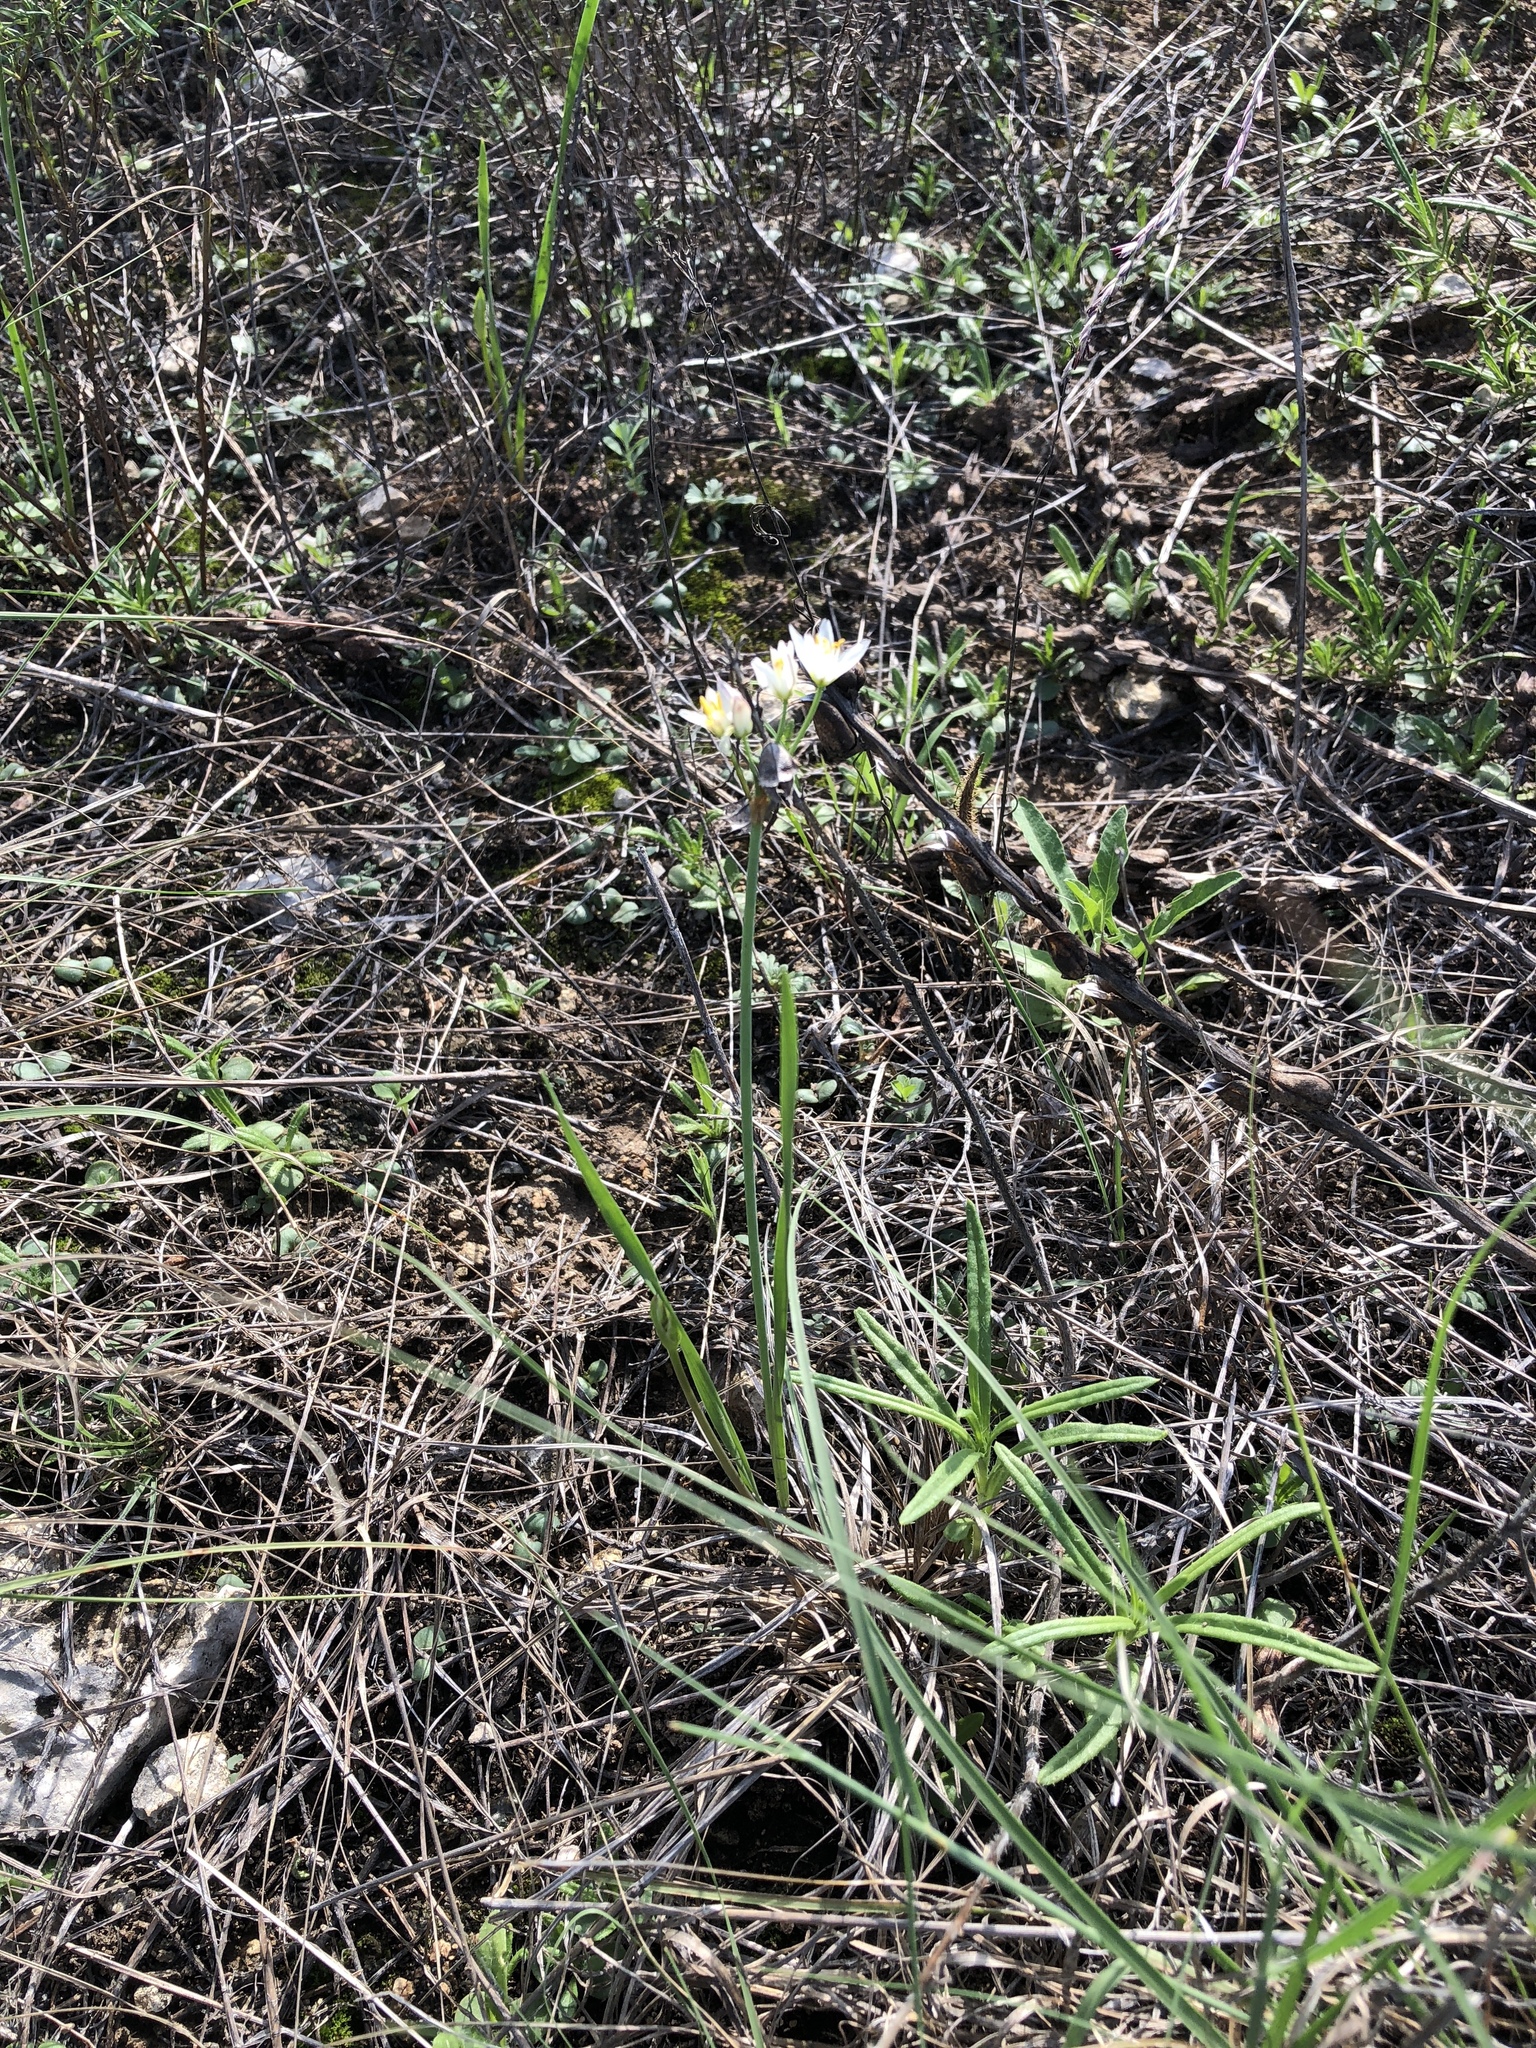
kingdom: Plantae
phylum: Tracheophyta
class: Liliopsida
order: Asparagales
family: Amaryllidaceae
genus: Nothoscordum
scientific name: Nothoscordum bivalve
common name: Crow-poison
